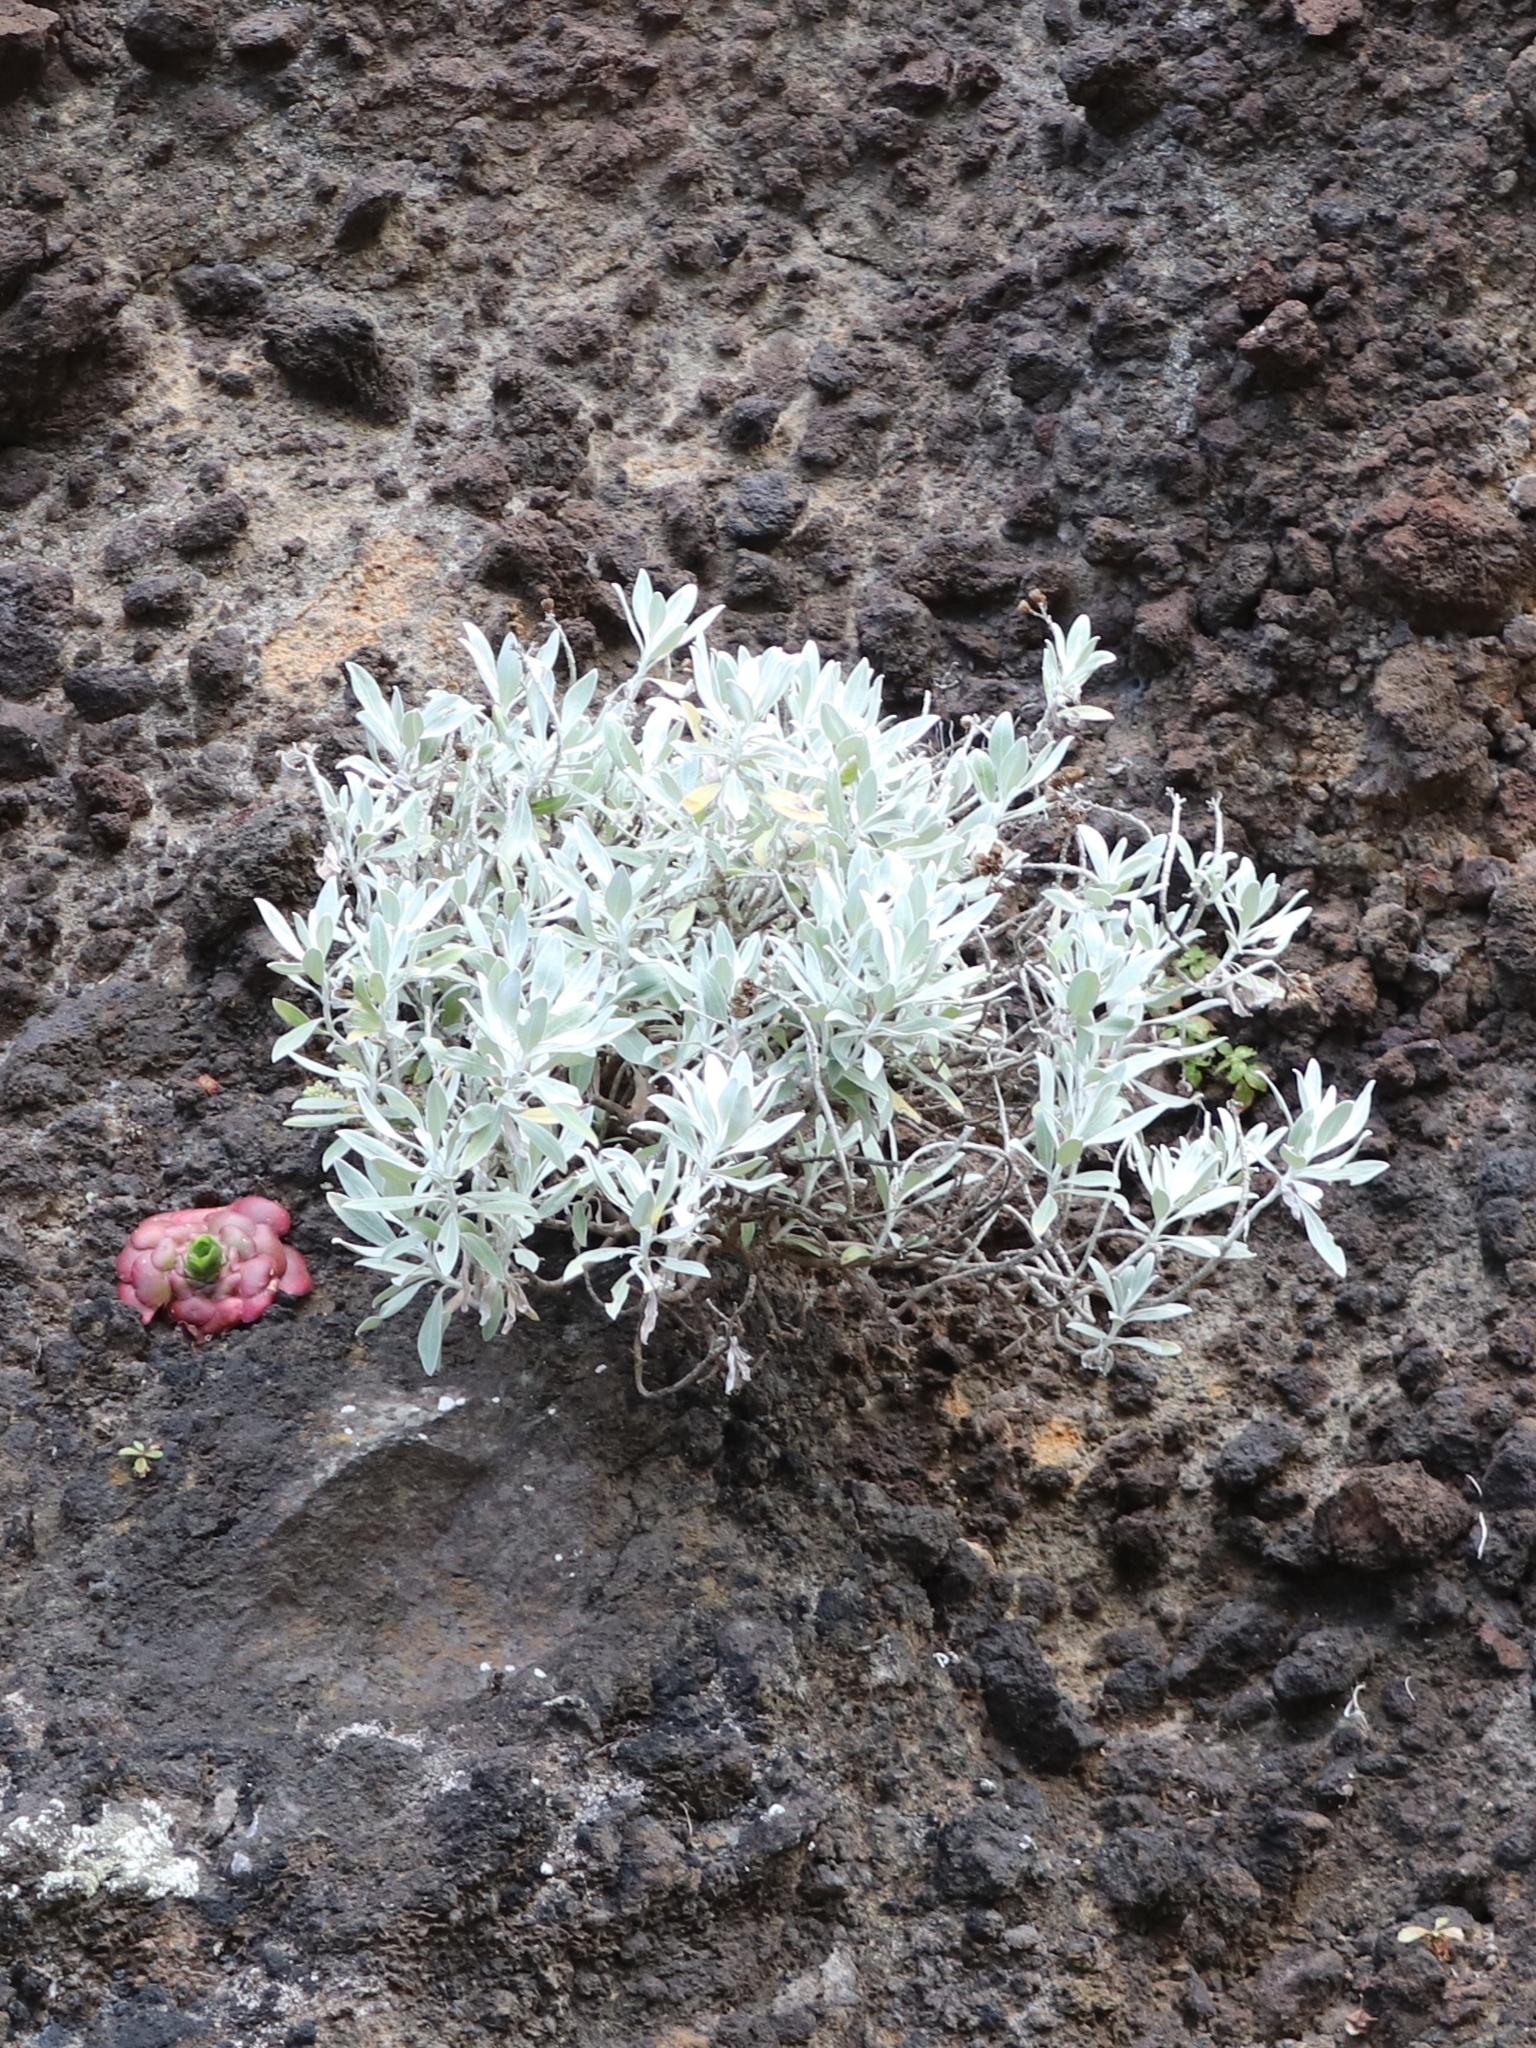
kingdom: Plantae
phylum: Tracheophyta
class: Magnoliopsida
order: Asterales
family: Asteraceae
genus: Helichrysum
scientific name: Helichrysum melaleucum
